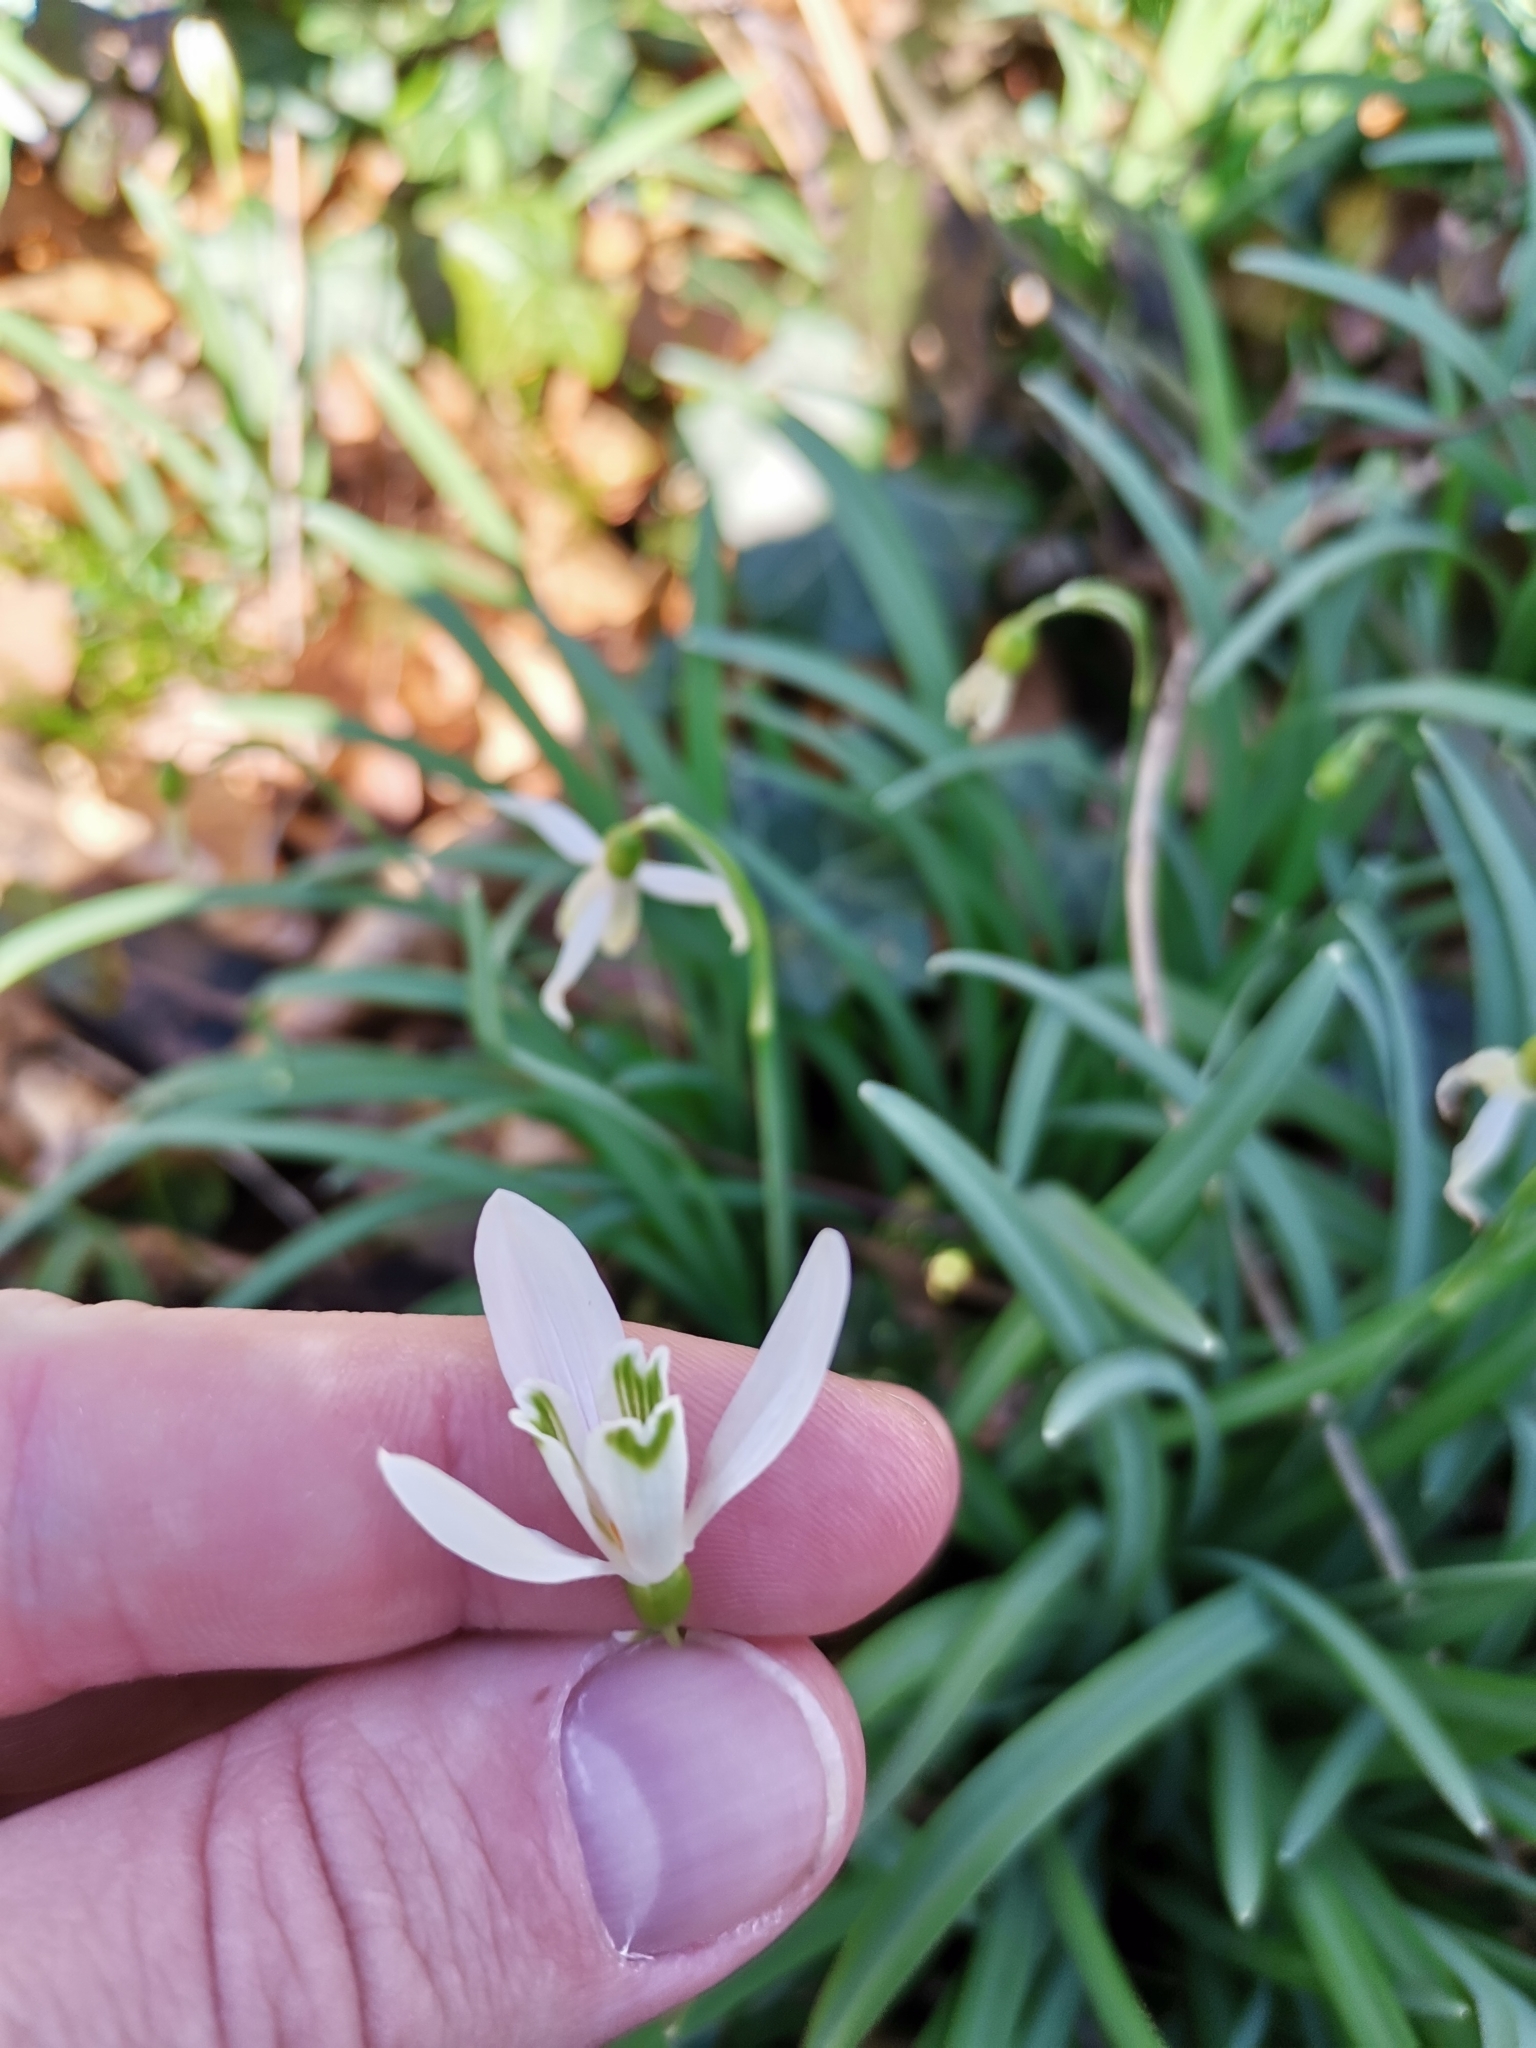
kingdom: Plantae
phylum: Tracheophyta
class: Liliopsida
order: Asparagales
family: Amaryllidaceae
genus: Galanthus
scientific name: Galanthus nivalis
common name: Snowdrop
